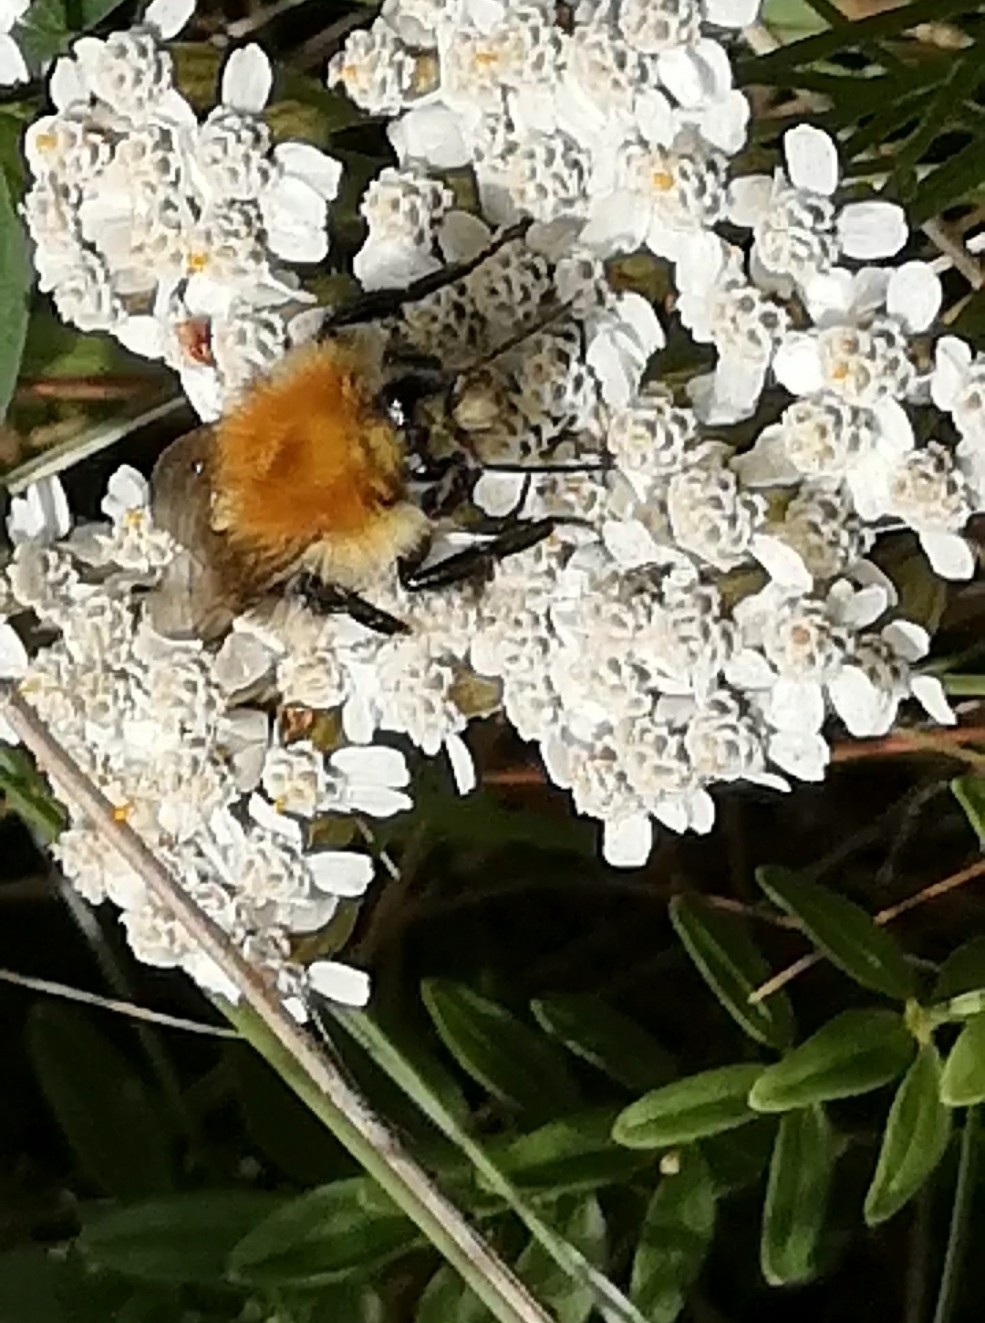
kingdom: Animalia
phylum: Arthropoda
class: Insecta
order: Hymenoptera
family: Apidae
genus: Bombus
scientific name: Bombus pascuorum
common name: Common carder bee
